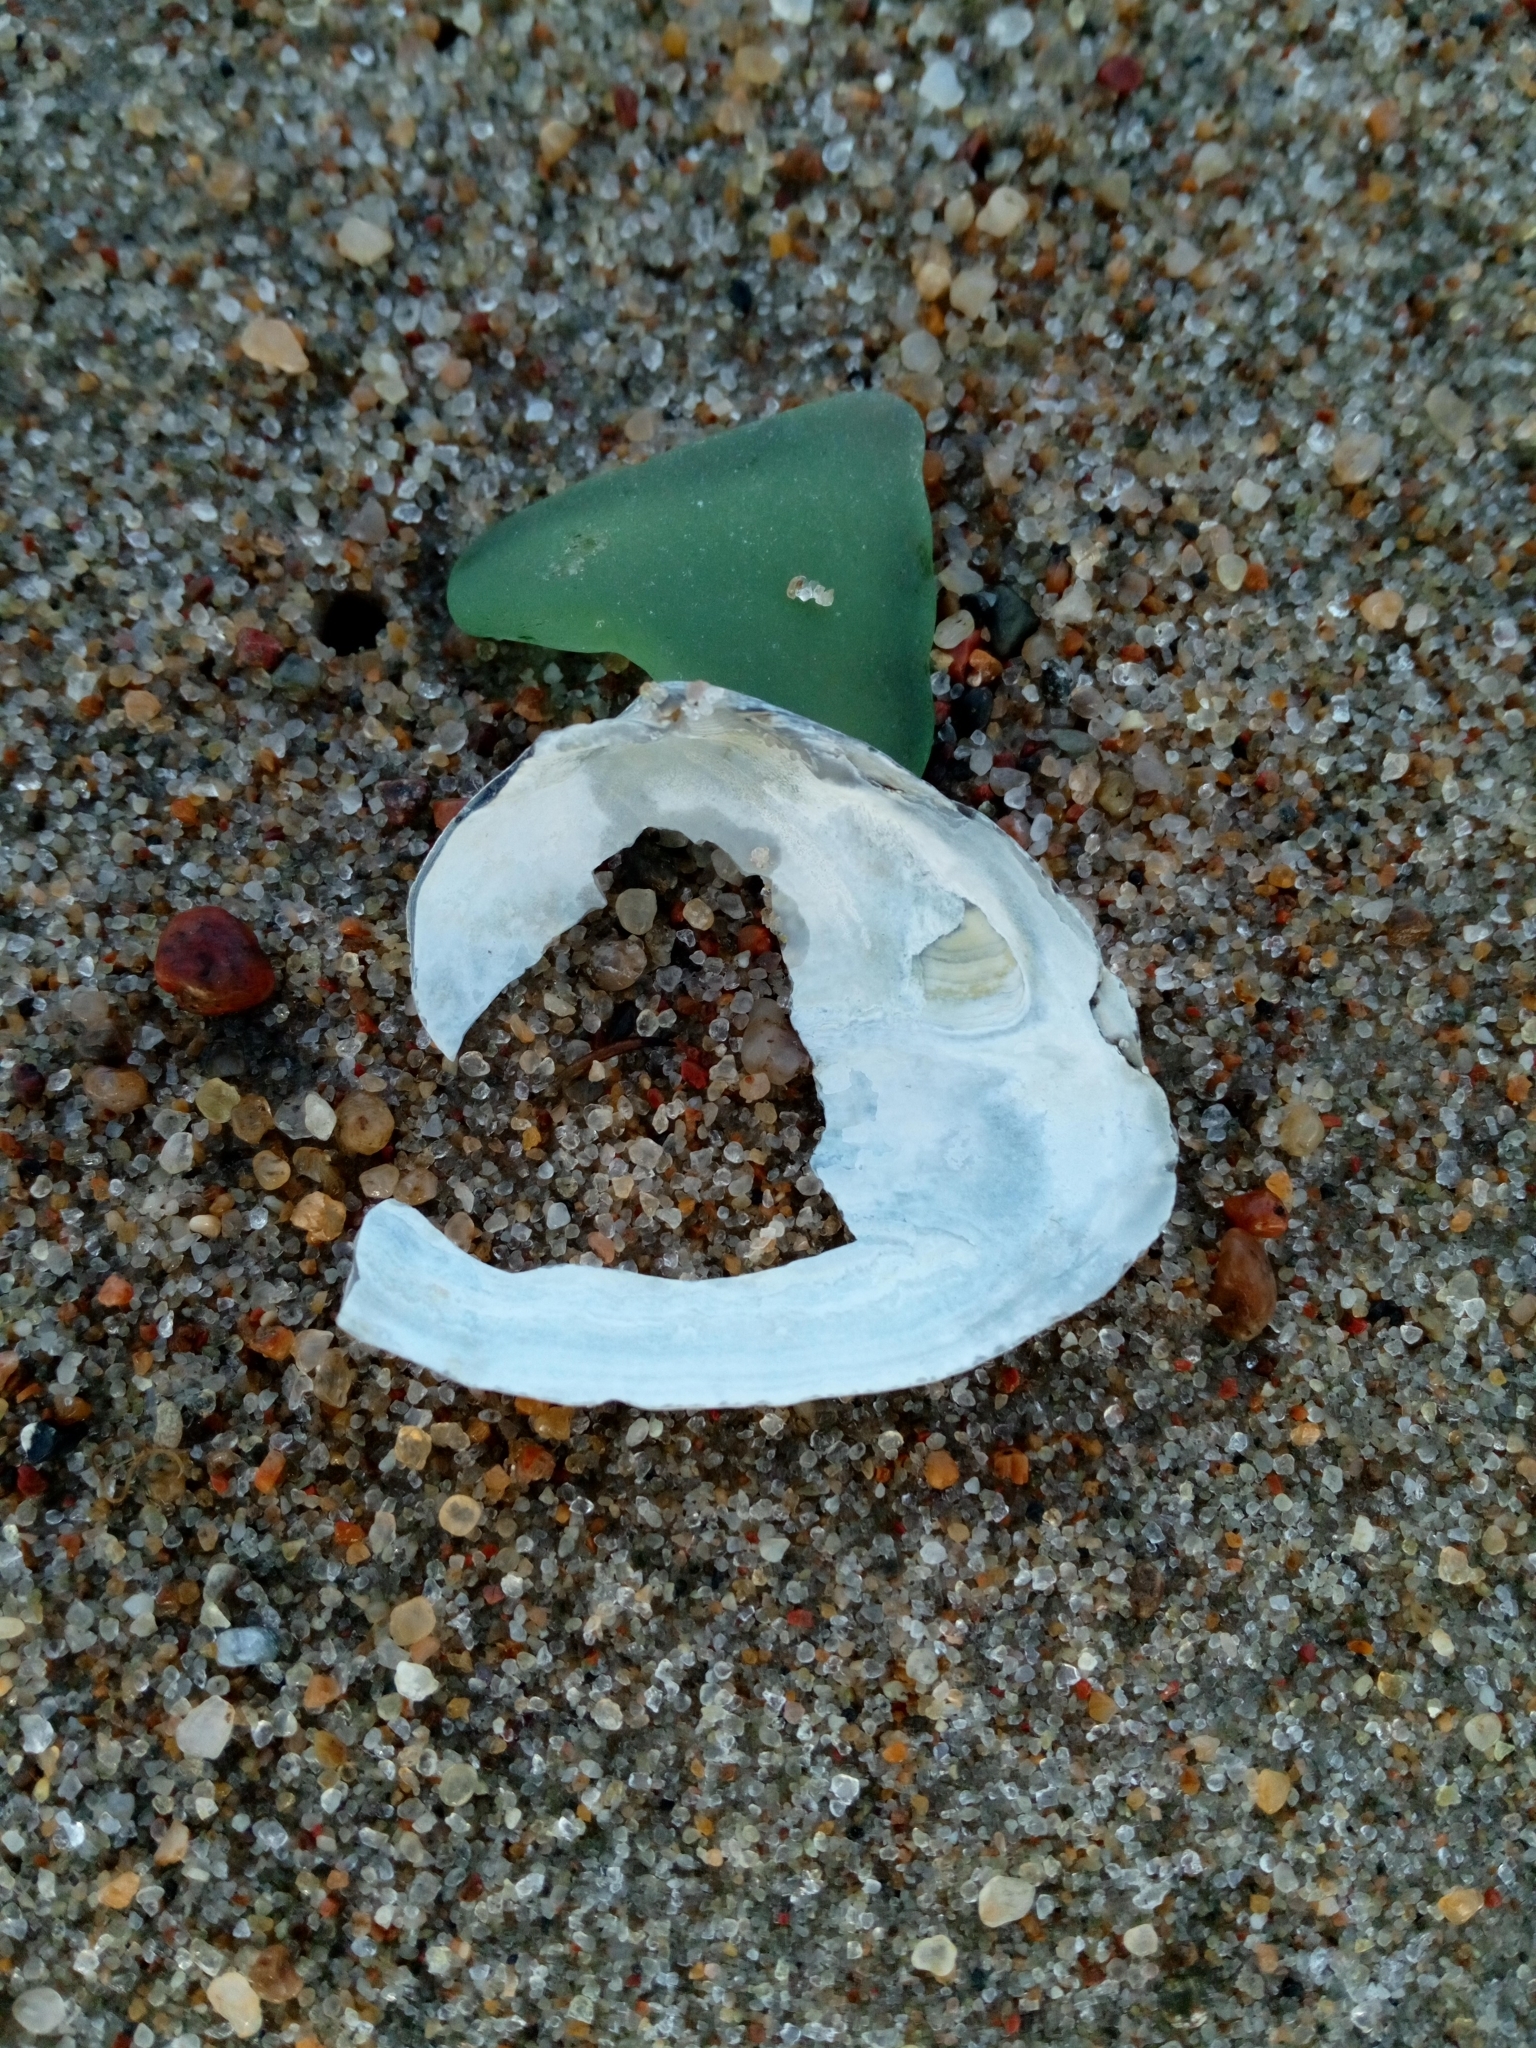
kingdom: Animalia
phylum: Mollusca
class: Bivalvia
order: Myida
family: Myidae
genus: Mya
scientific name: Mya arenaria
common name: Soft-shelled clam
